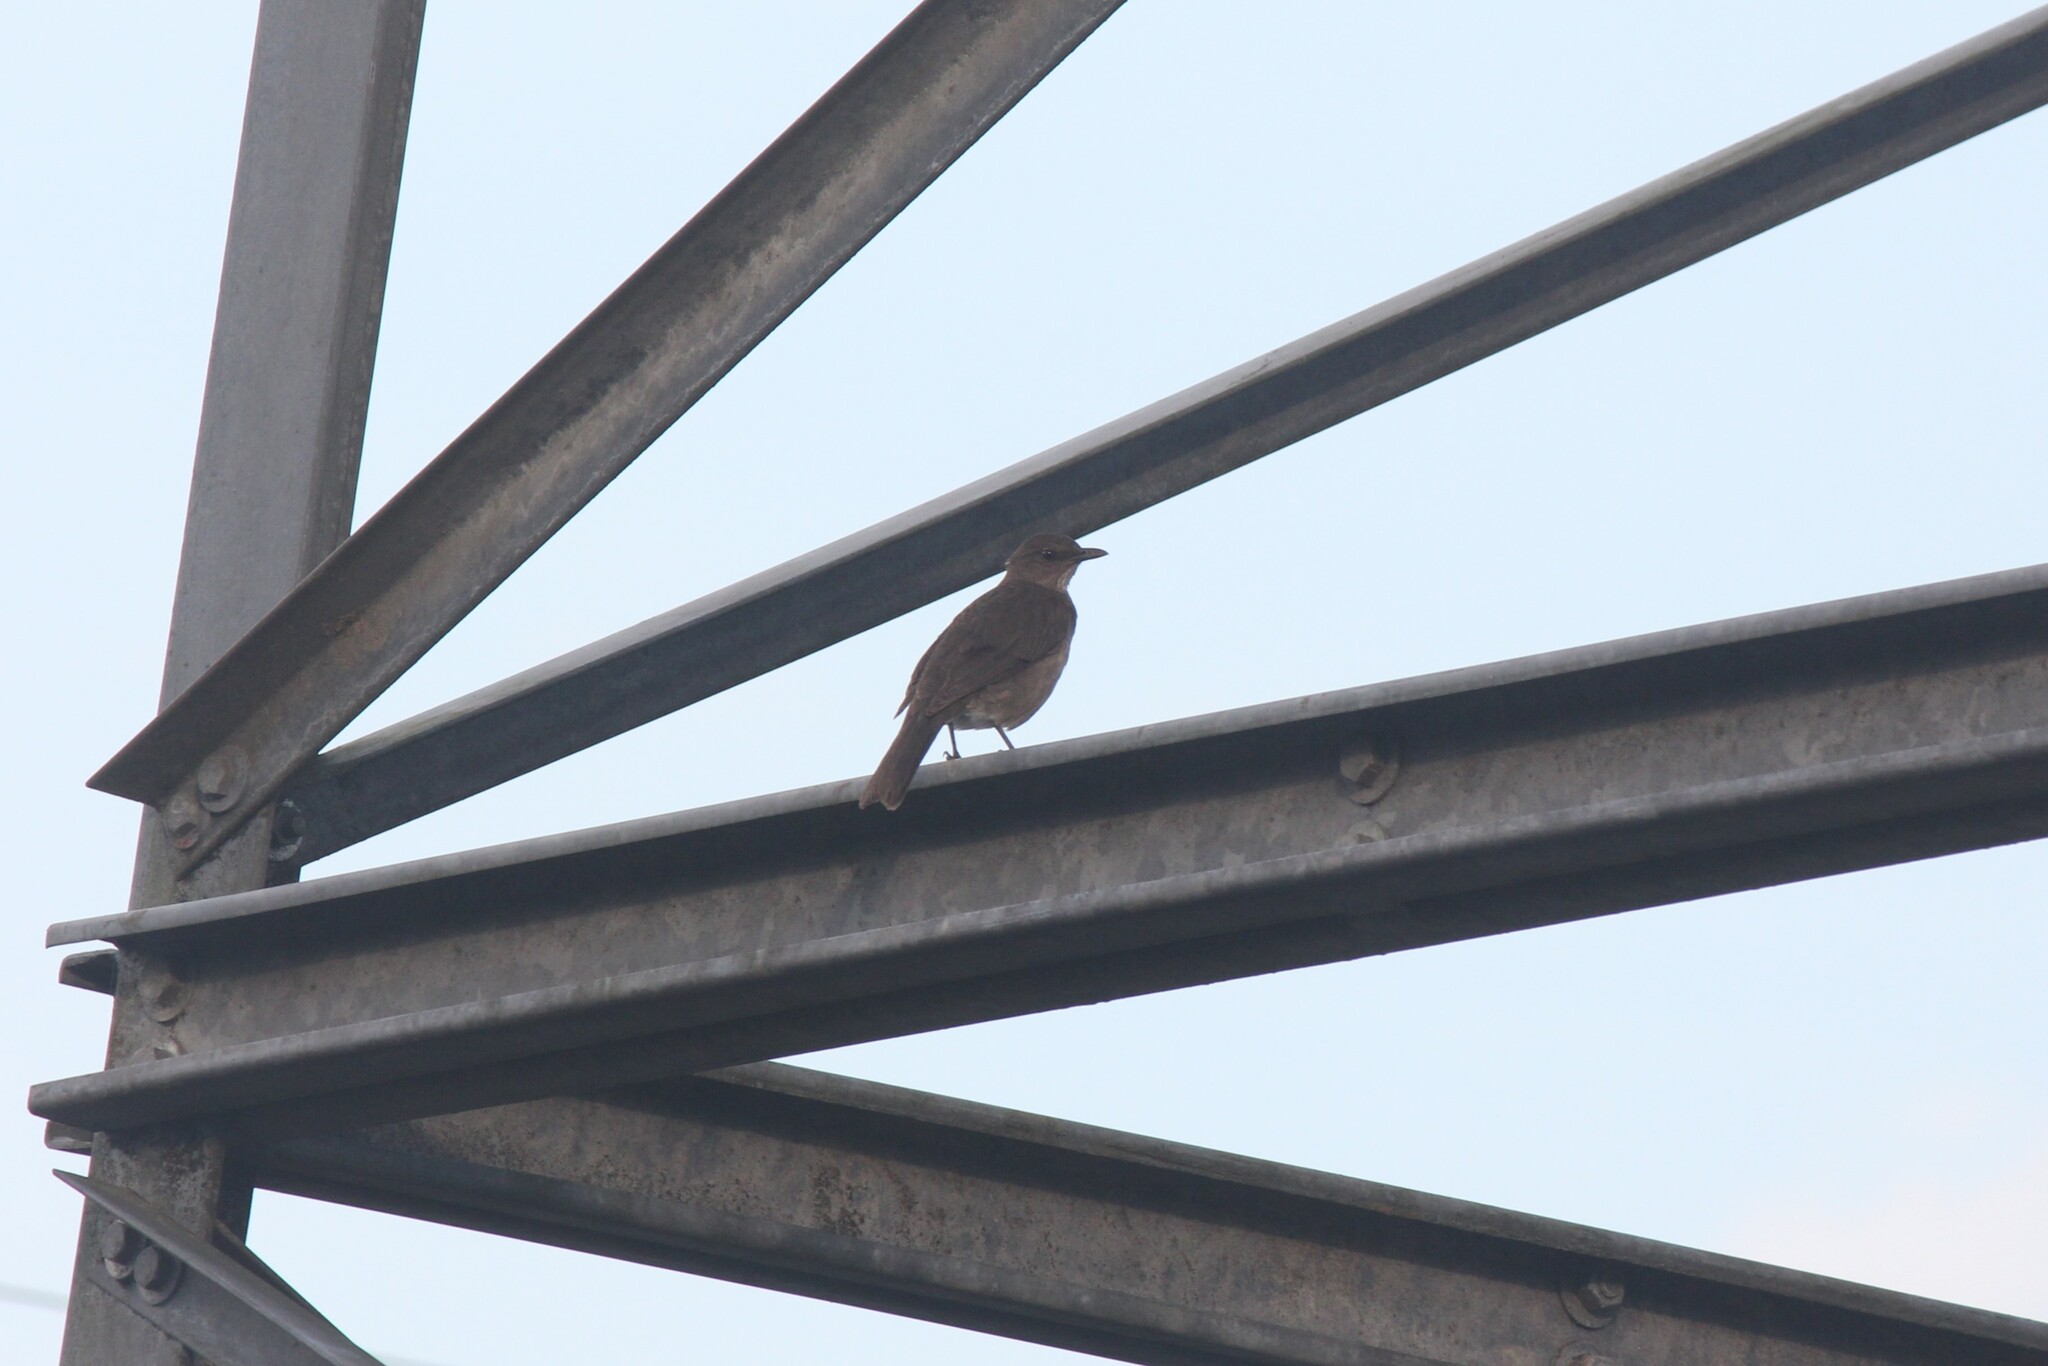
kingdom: Animalia
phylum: Chordata
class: Aves
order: Passeriformes
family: Turdidae
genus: Turdus
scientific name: Turdus ignobilis
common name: Black-billed thrush
